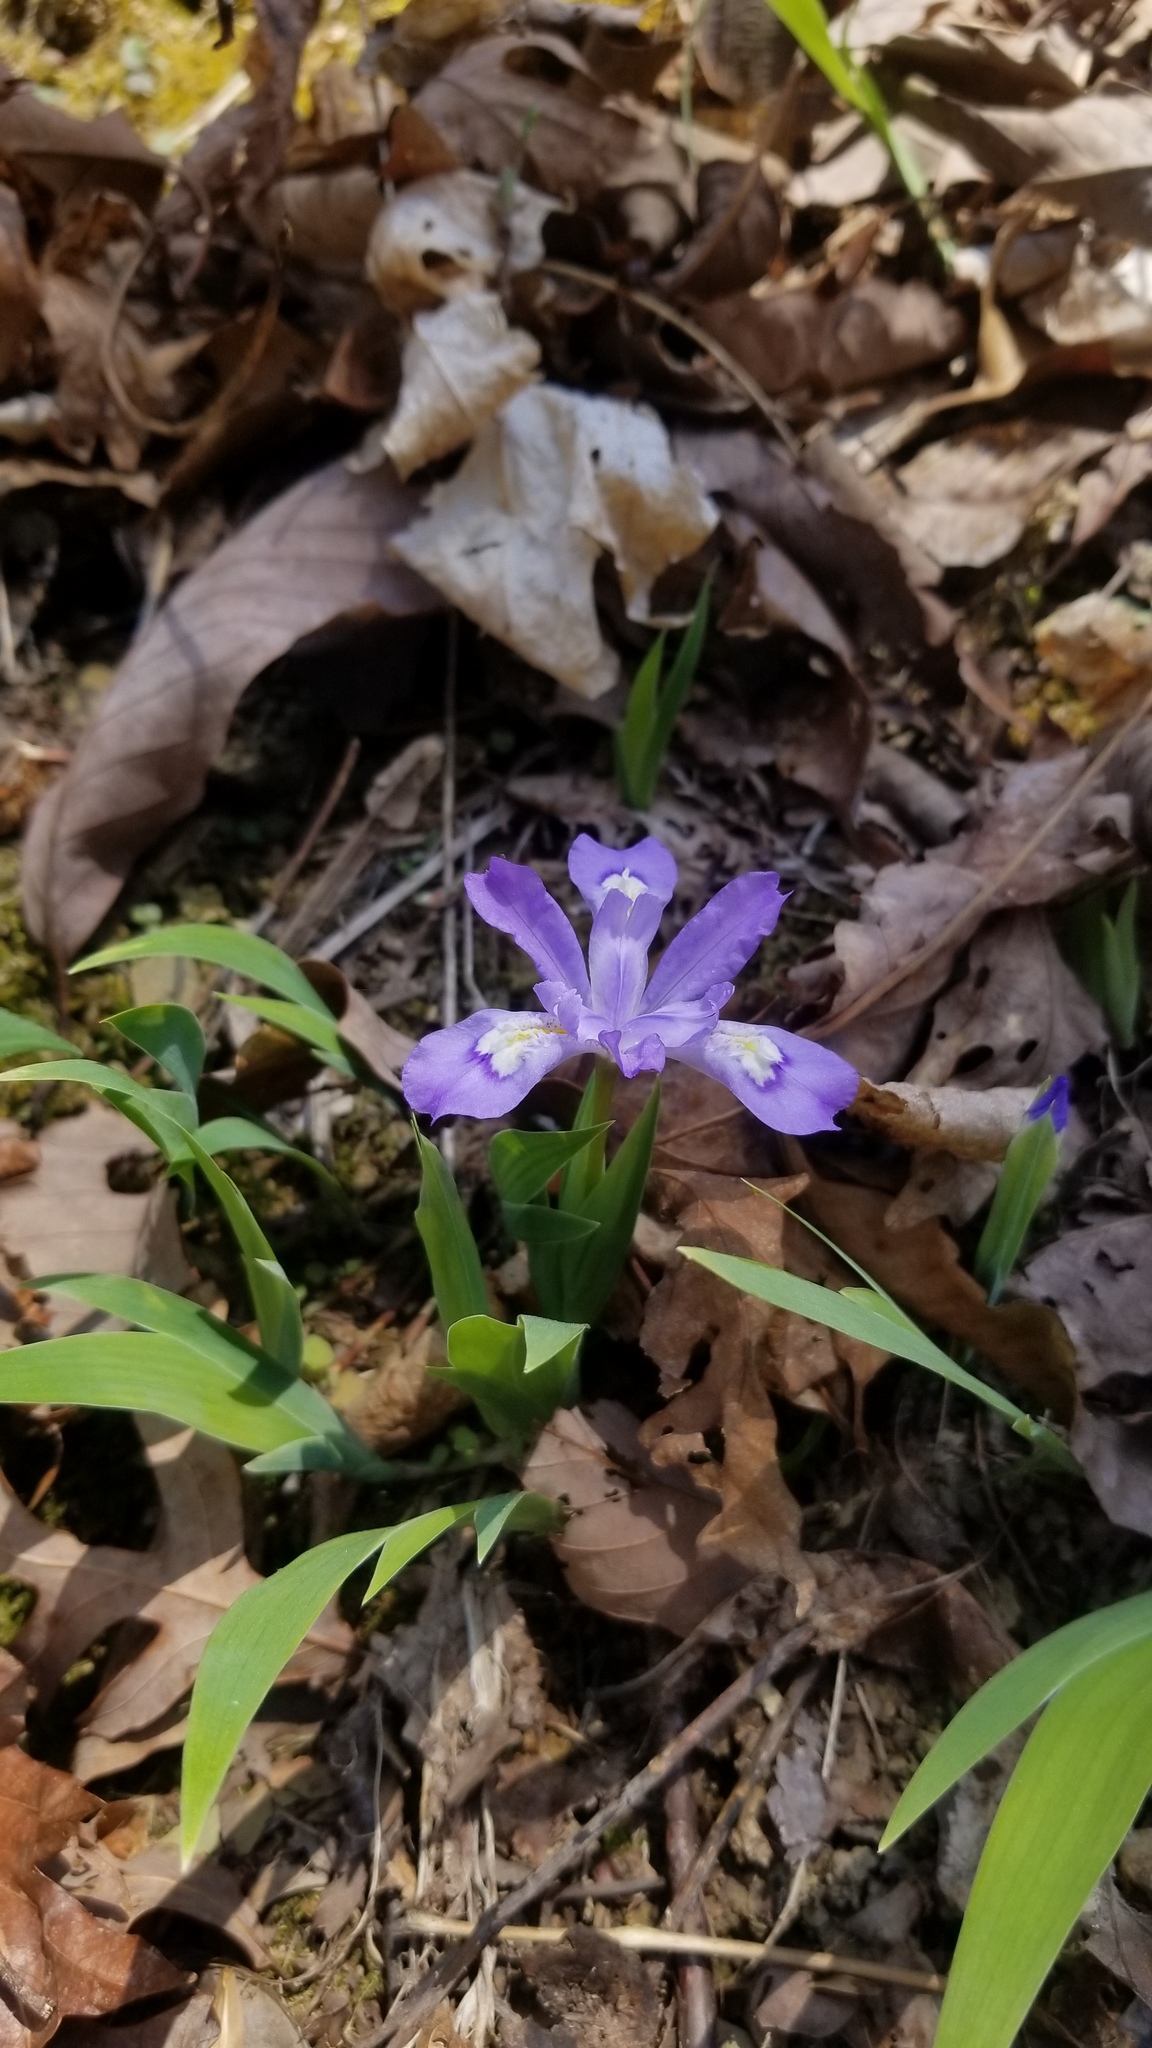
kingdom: Plantae
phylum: Tracheophyta
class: Liliopsida
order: Asparagales
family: Iridaceae
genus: Iris
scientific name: Iris cristata
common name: Crested iris
